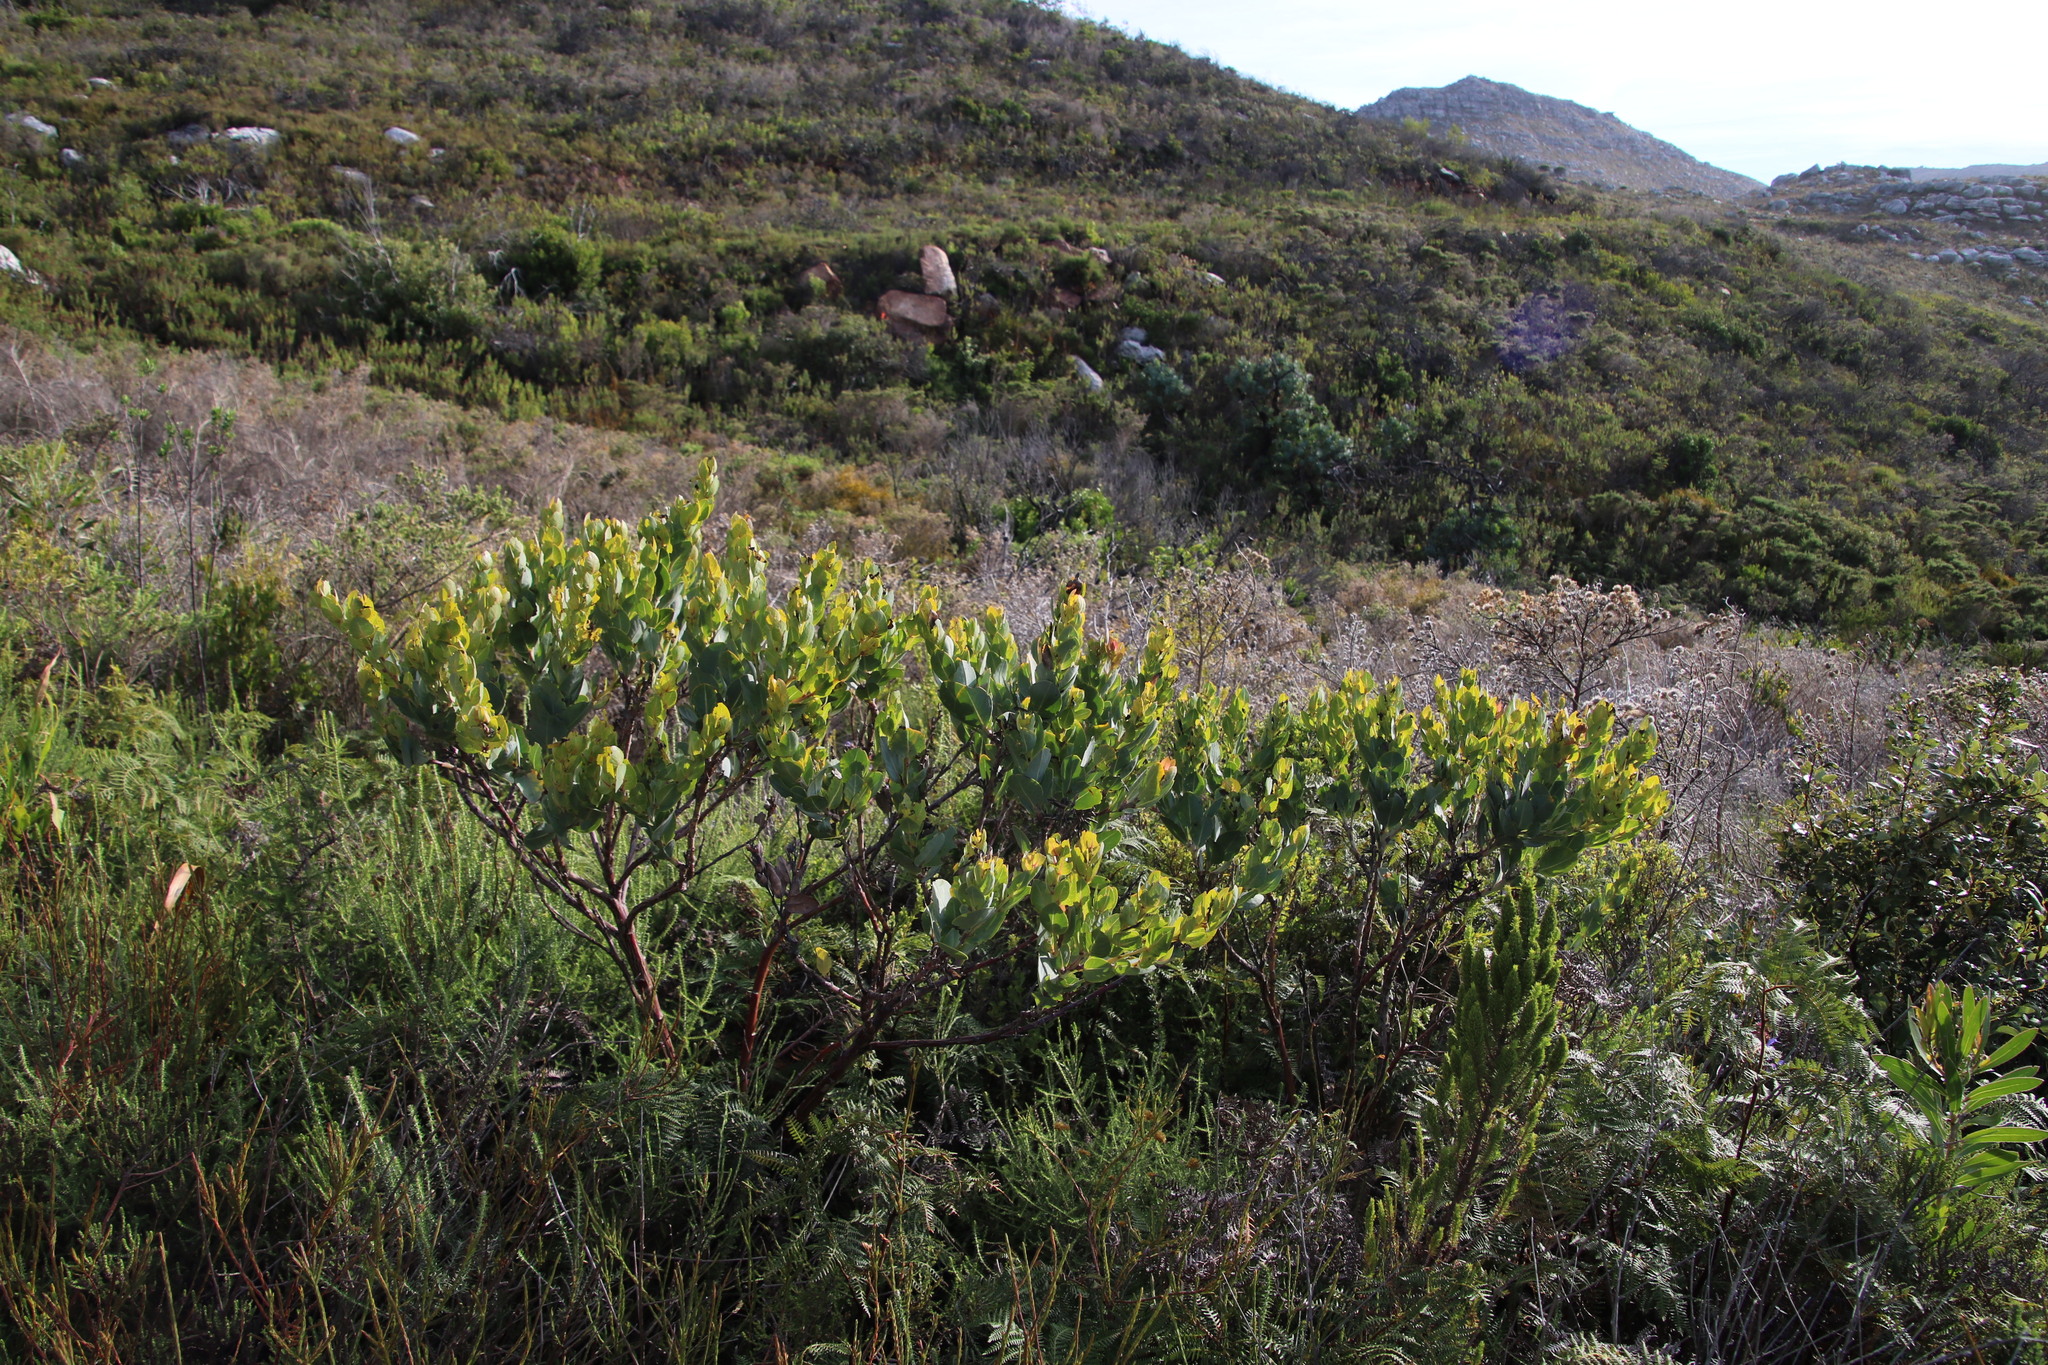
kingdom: Plantae
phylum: Tracheophyta
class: Magnoliopsida
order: Fabales
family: Fabaceae
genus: Rafnia
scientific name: Rafnia capensis
